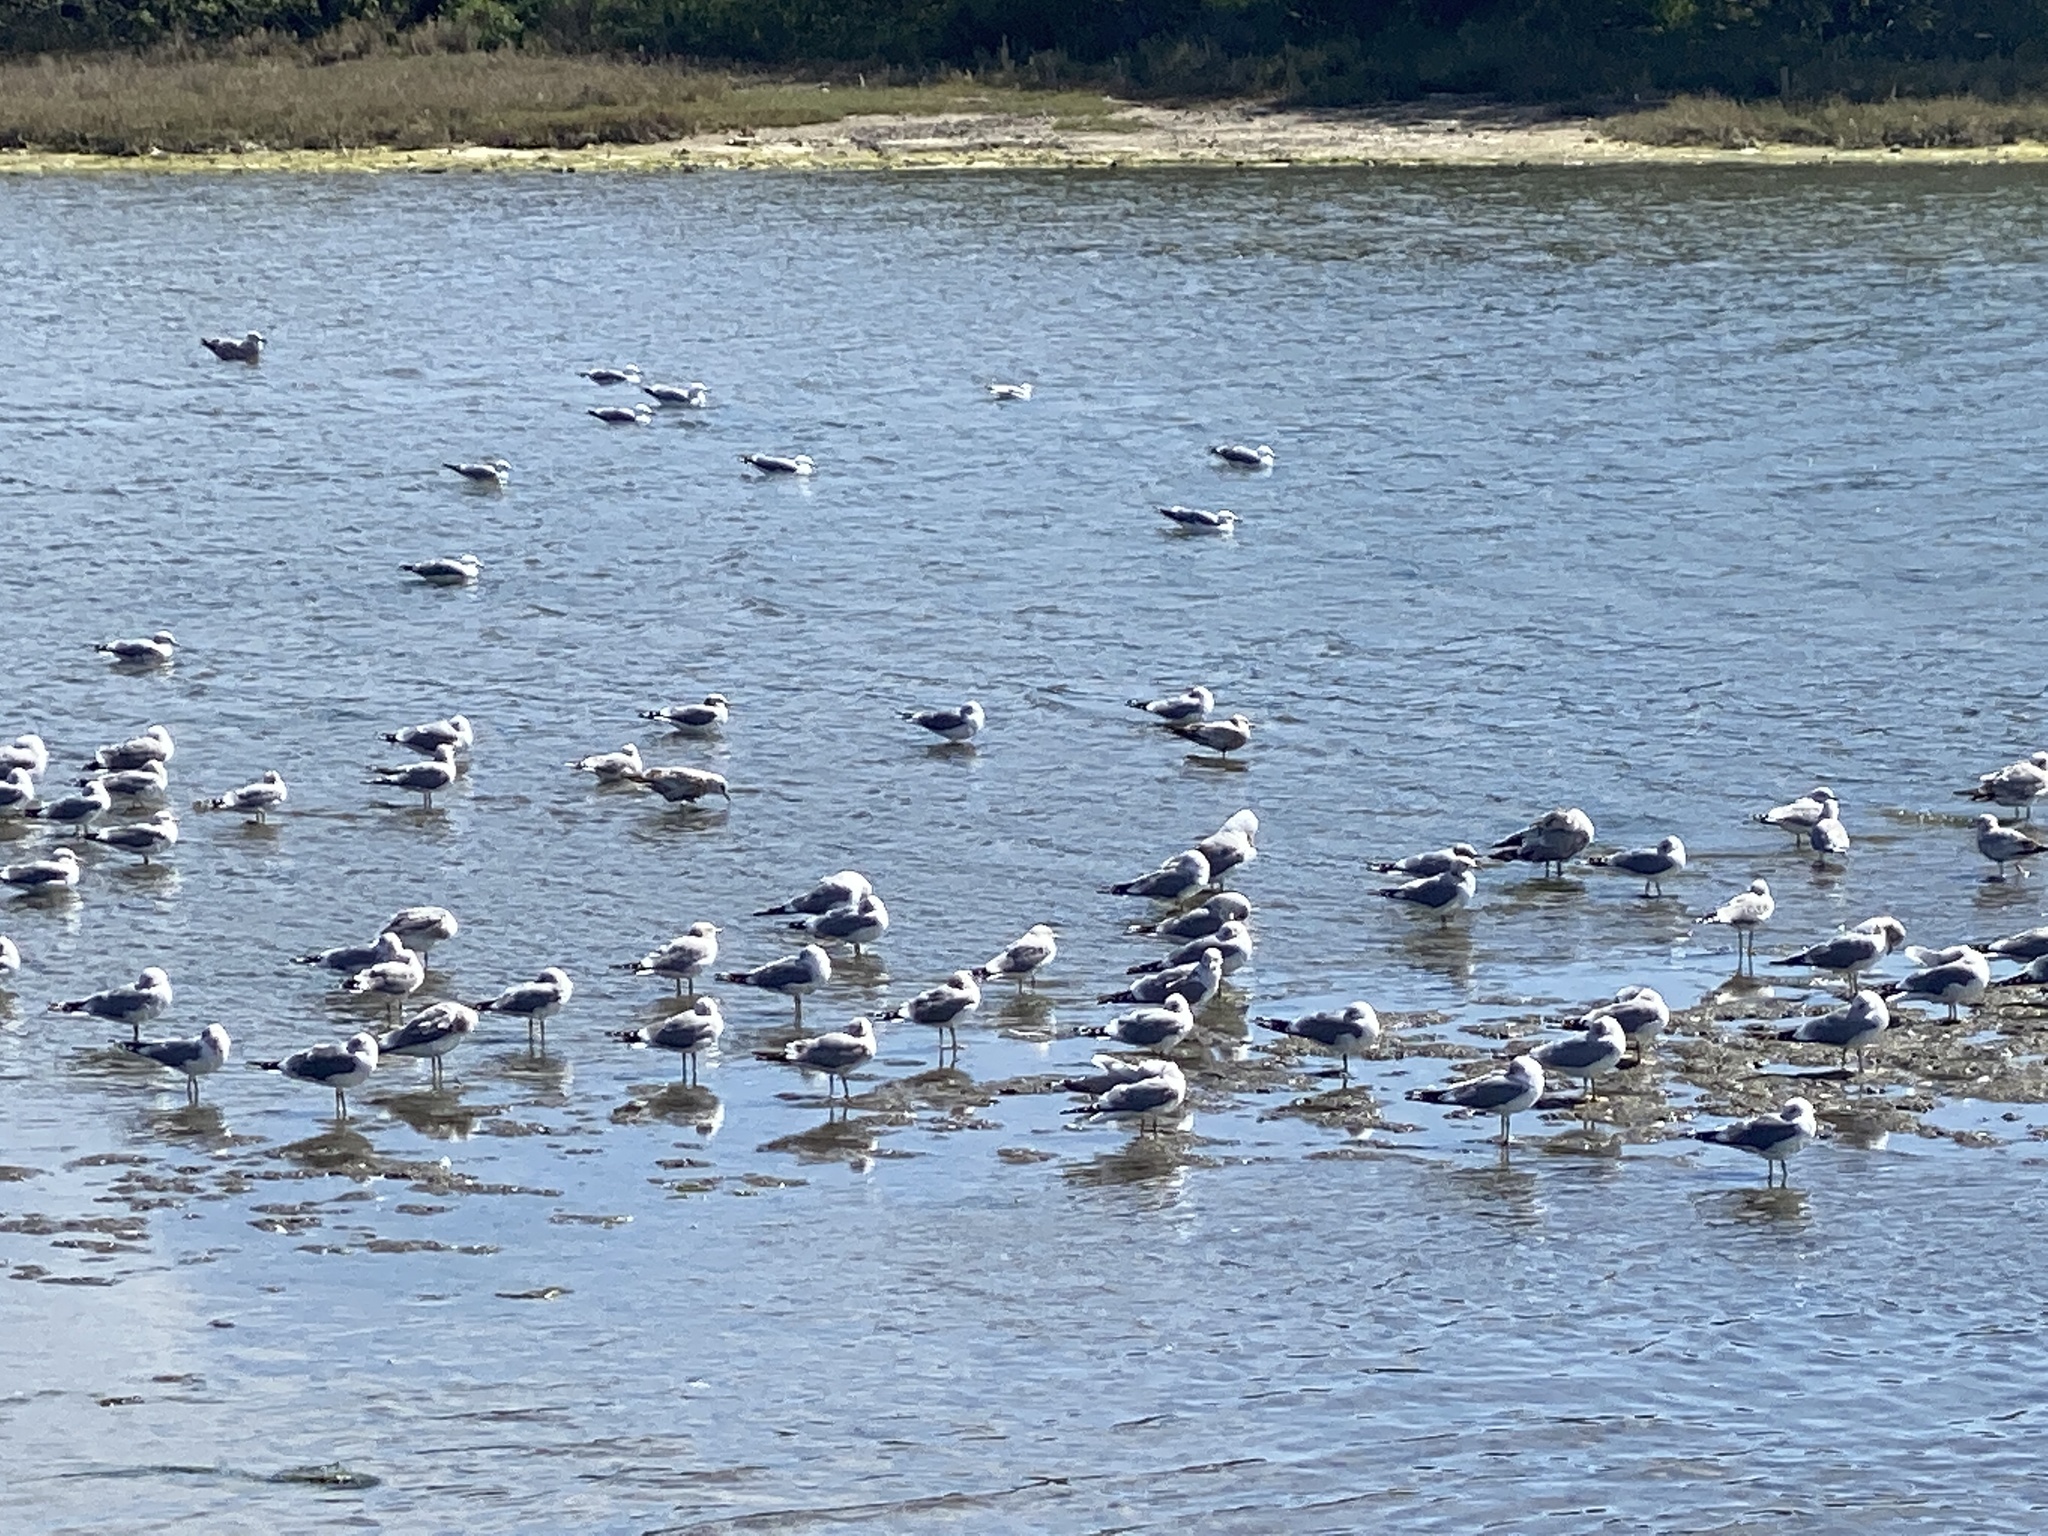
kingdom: Animalia
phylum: Chordata
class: Aves
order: Charadriiformes
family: Laridae
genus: Larus
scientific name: Larus brachyrhynchus
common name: Short-billed gull
